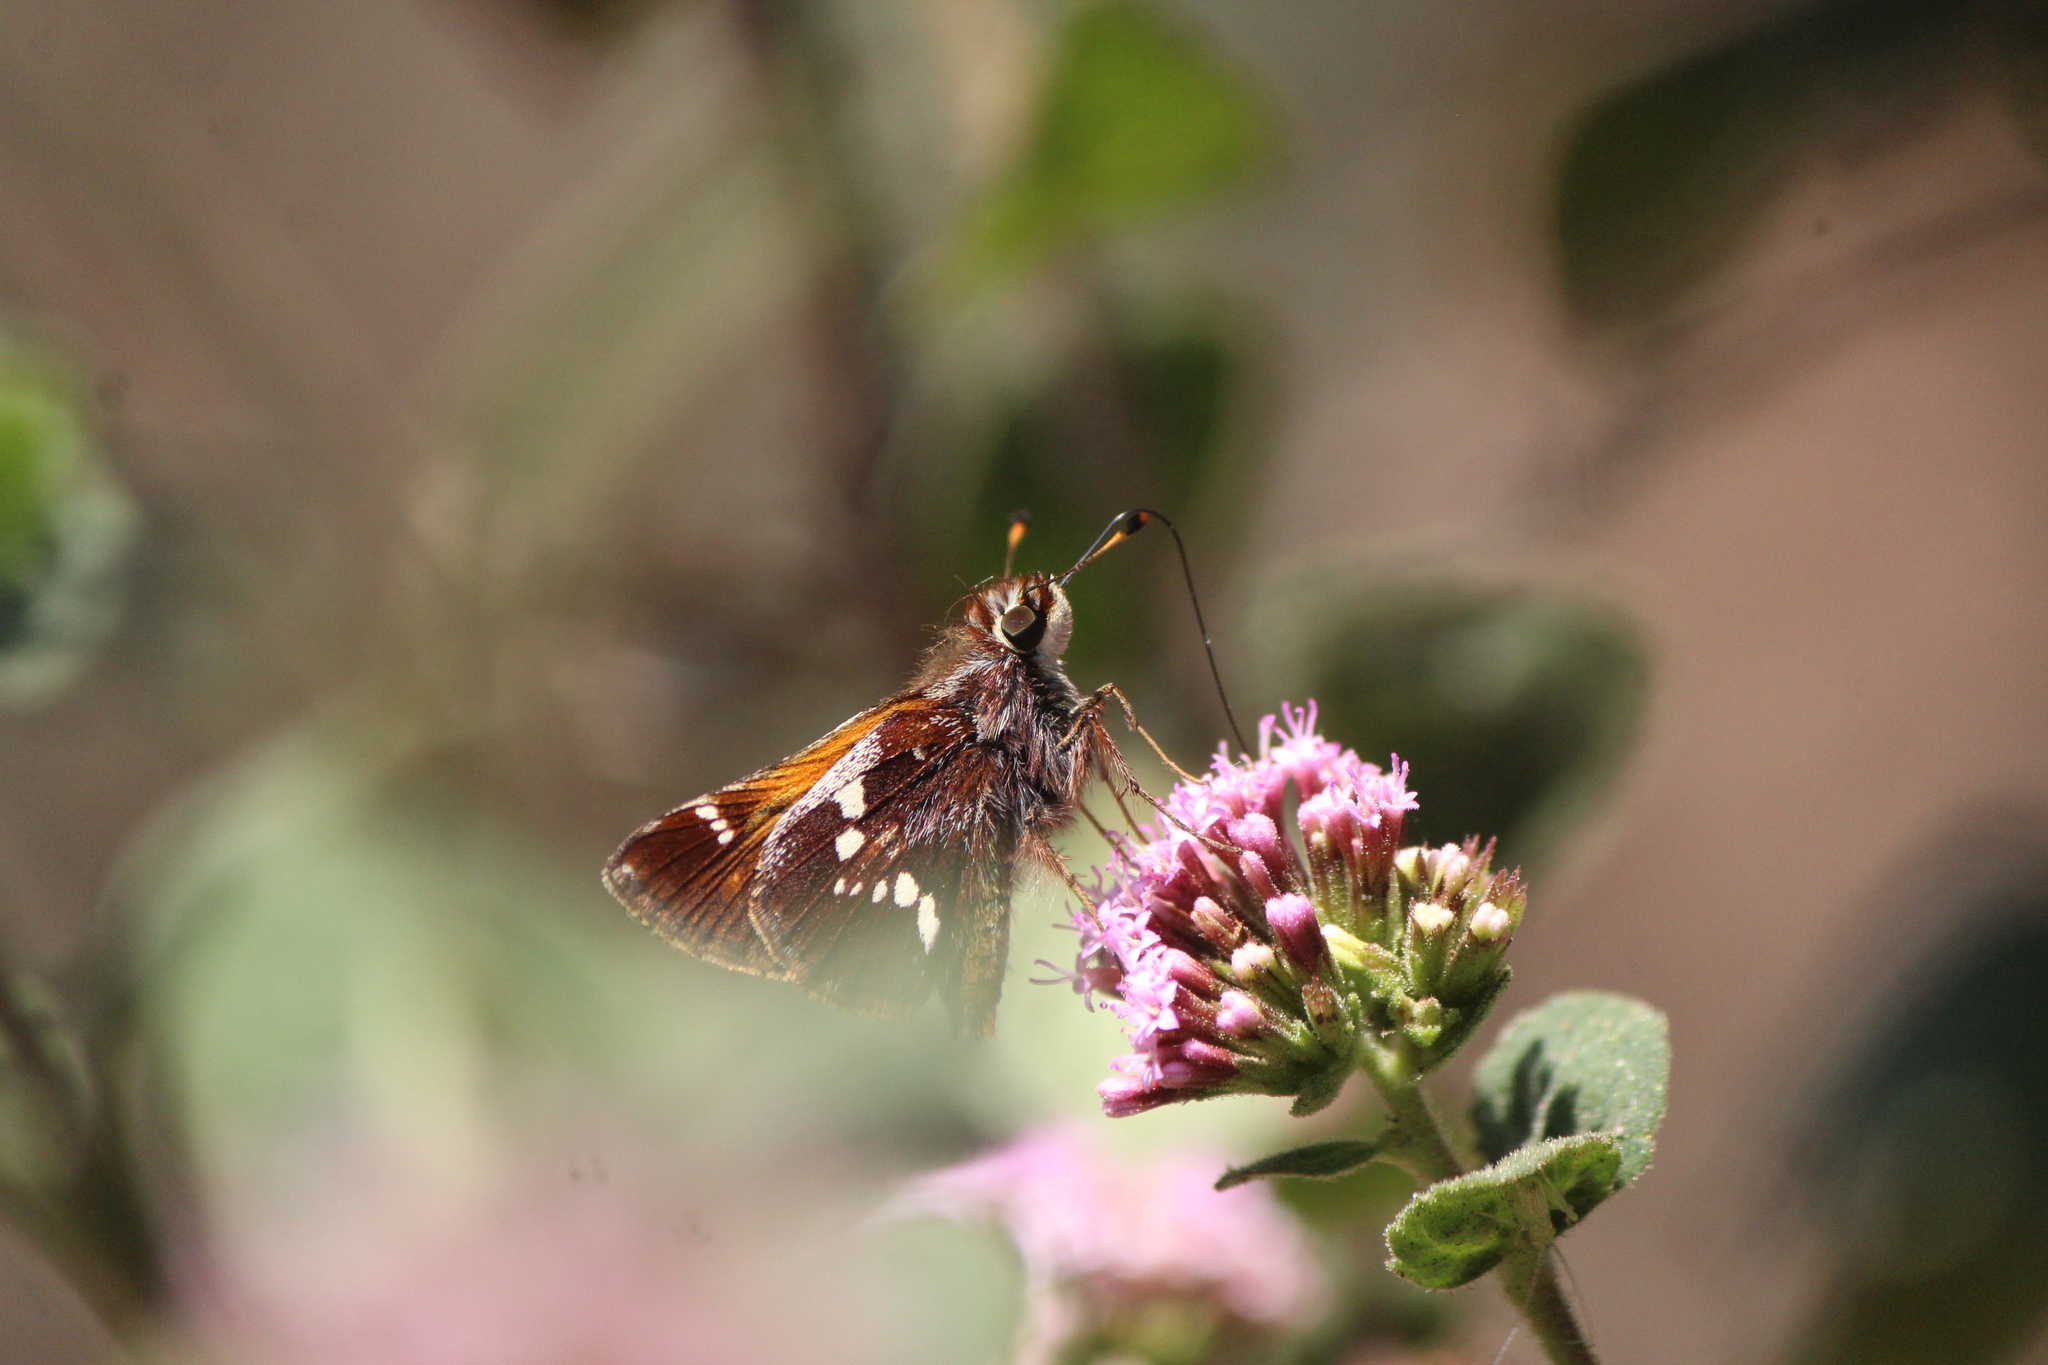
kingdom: Animalia
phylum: Arthropoda
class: Insecta
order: Lepidoptera
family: Hesperiidae
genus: Lon
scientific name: Lon monticola
